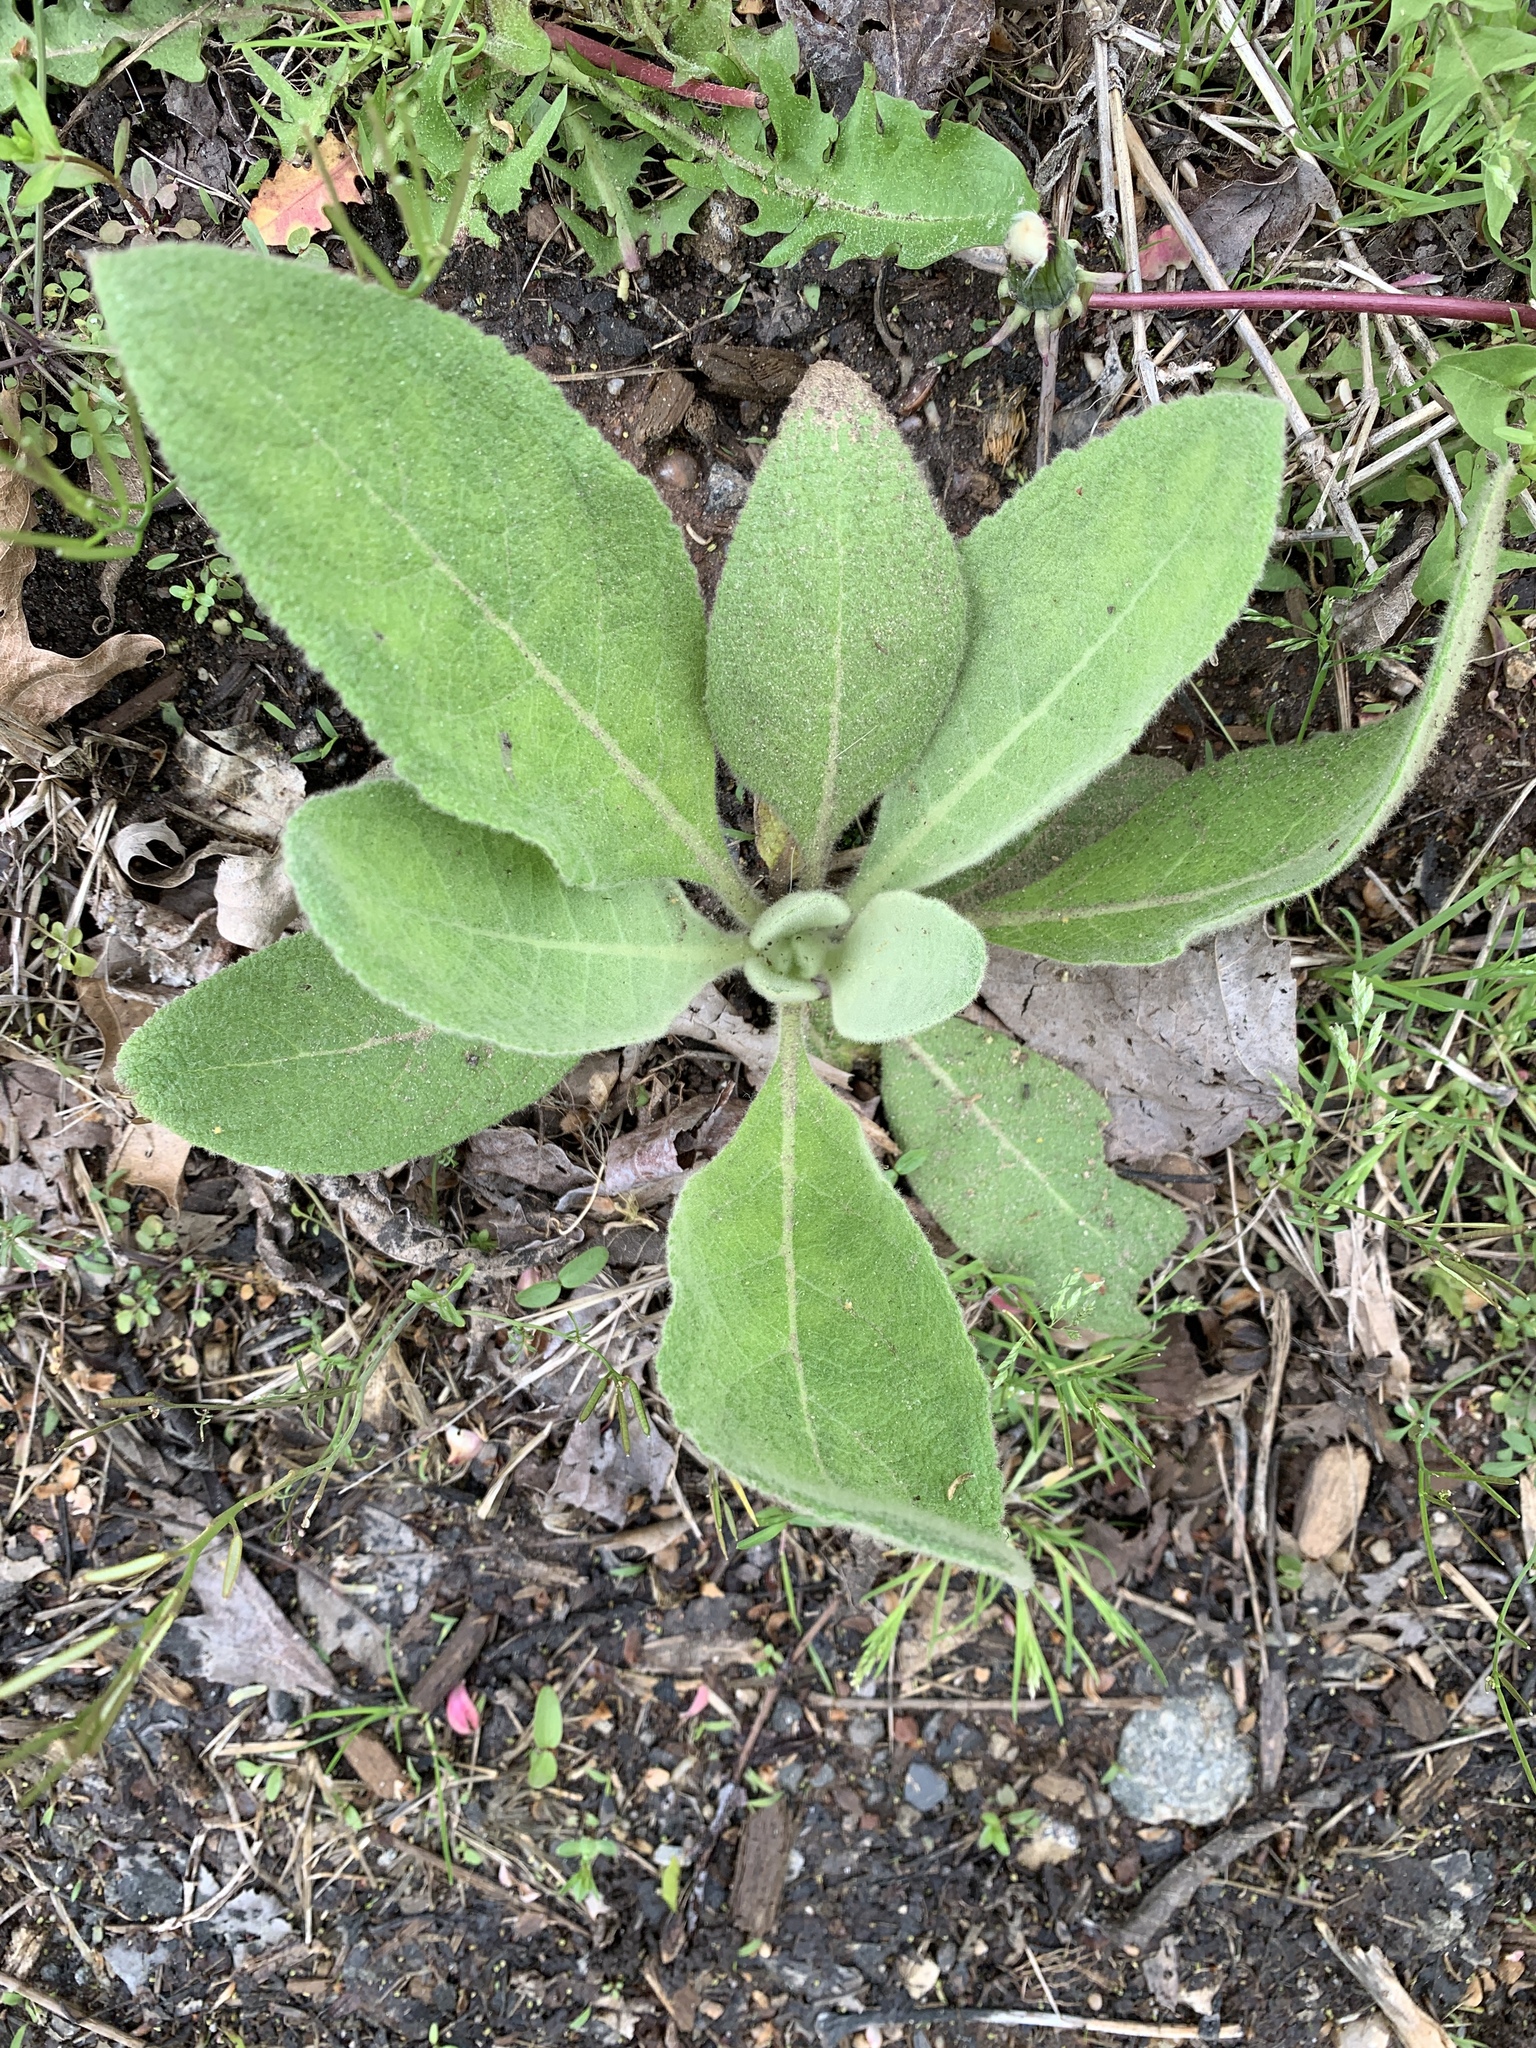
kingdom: Plantae
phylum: Tracheophyta
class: Magnoliopsida
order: Lamiales
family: Scrophulariaceae
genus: Verbascum
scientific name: Verbascum thapsus
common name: Common mullein
